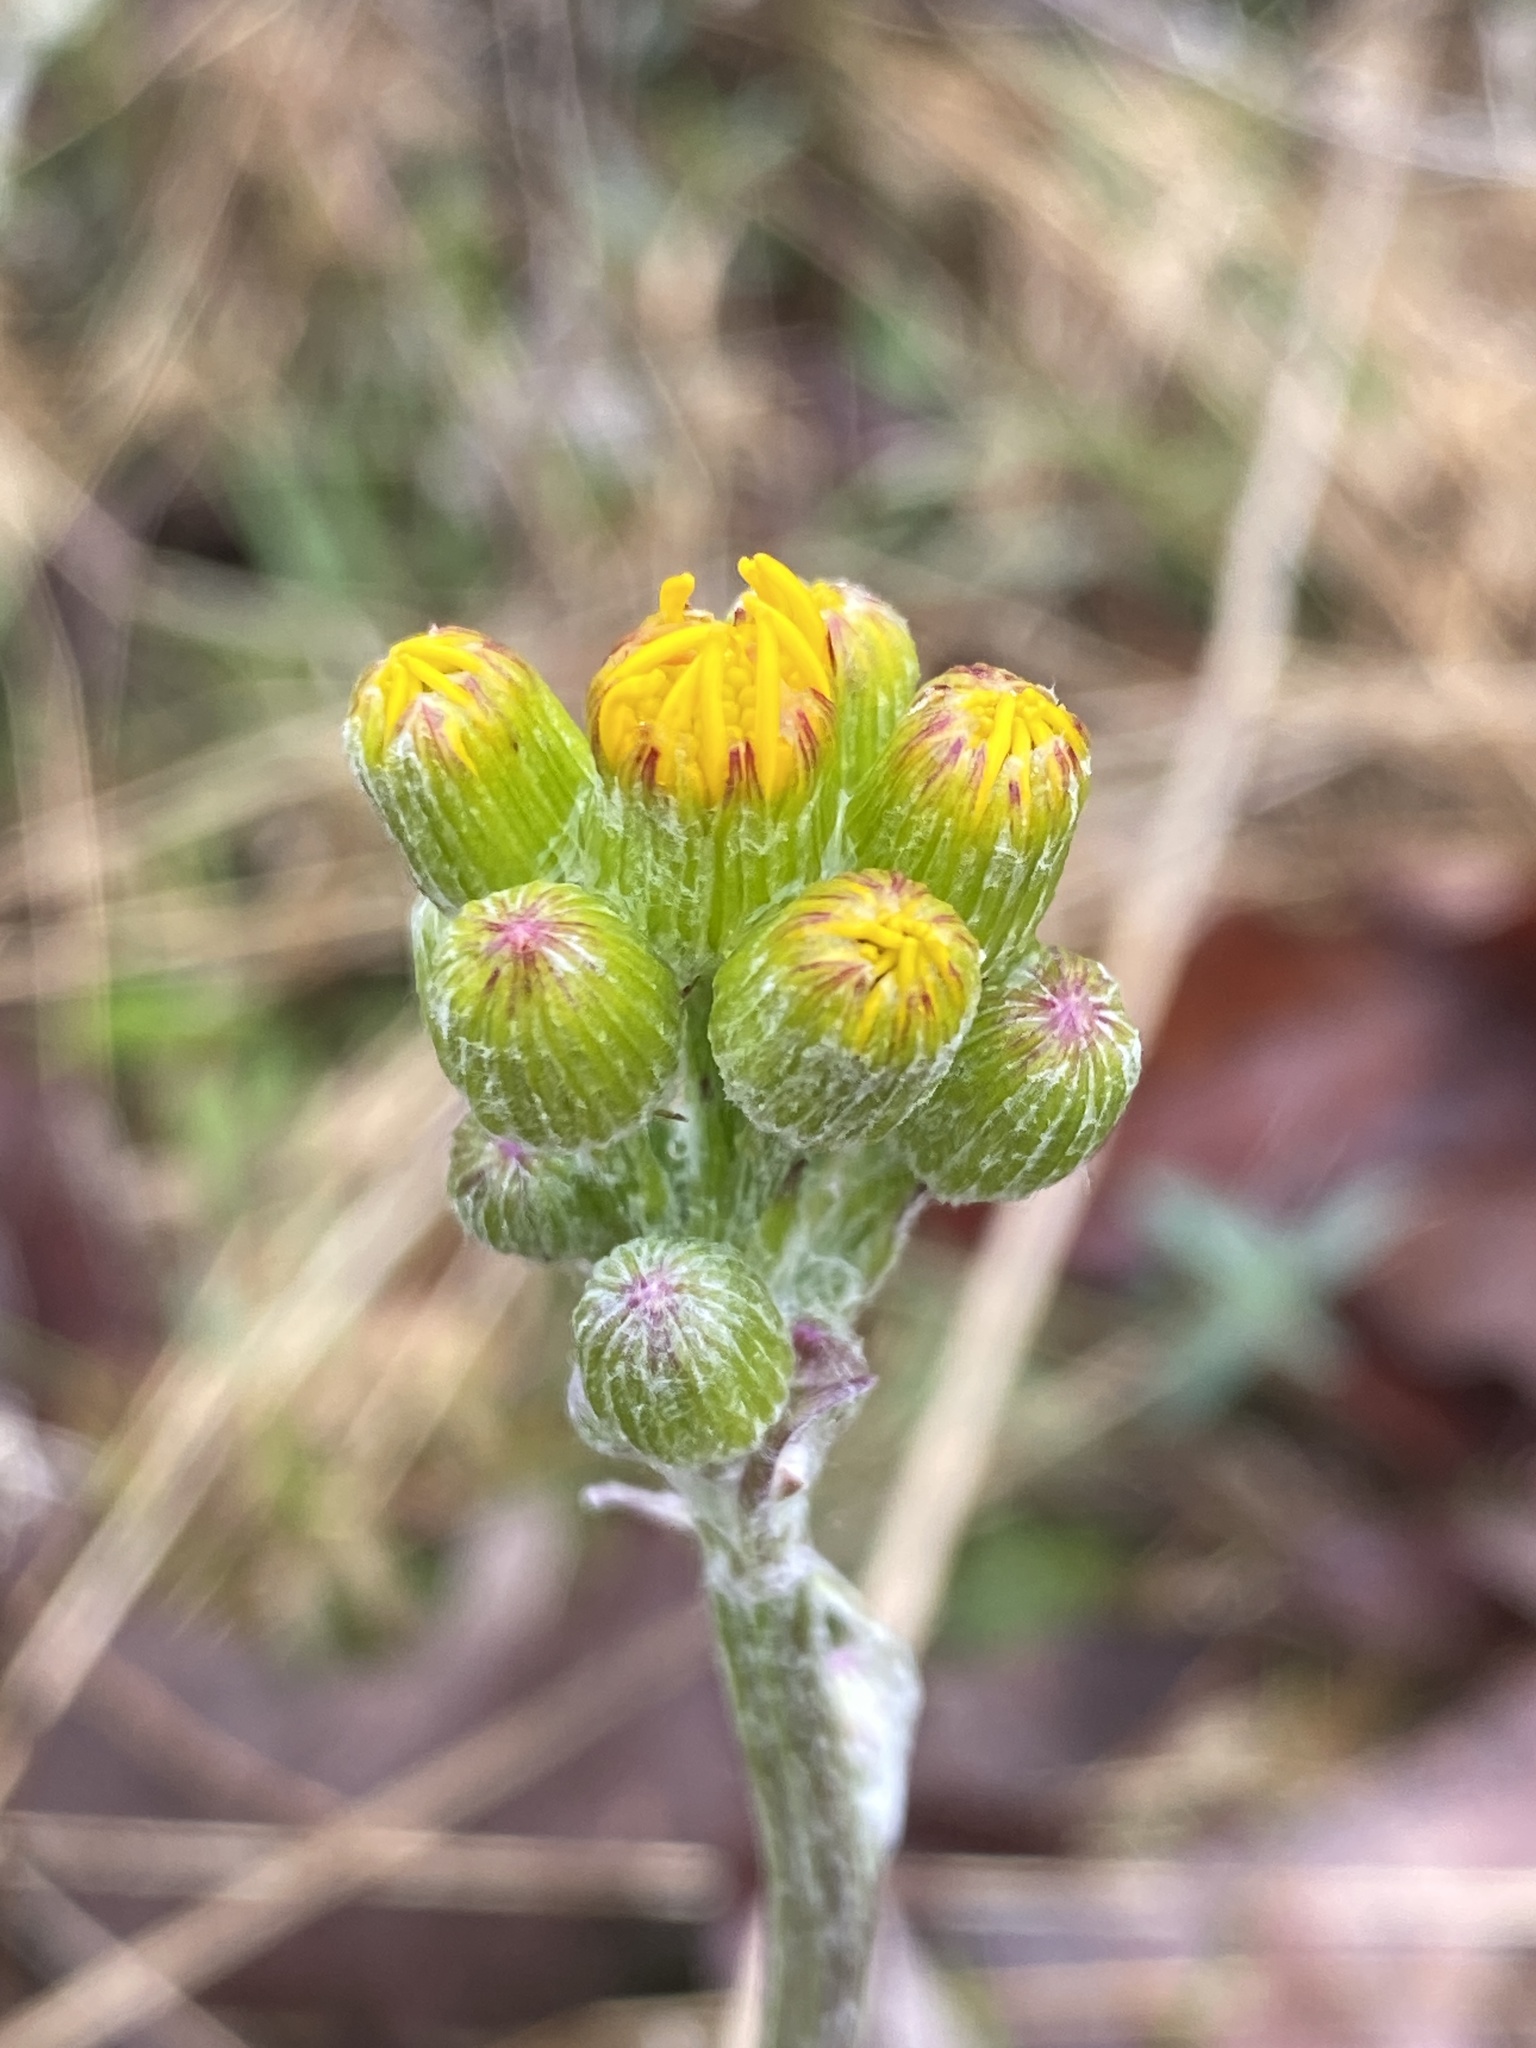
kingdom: Plantae
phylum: Tracheophyta
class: Magnoliopsida
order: Asterales
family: Asteraceae
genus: Packera
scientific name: Packera dubia
